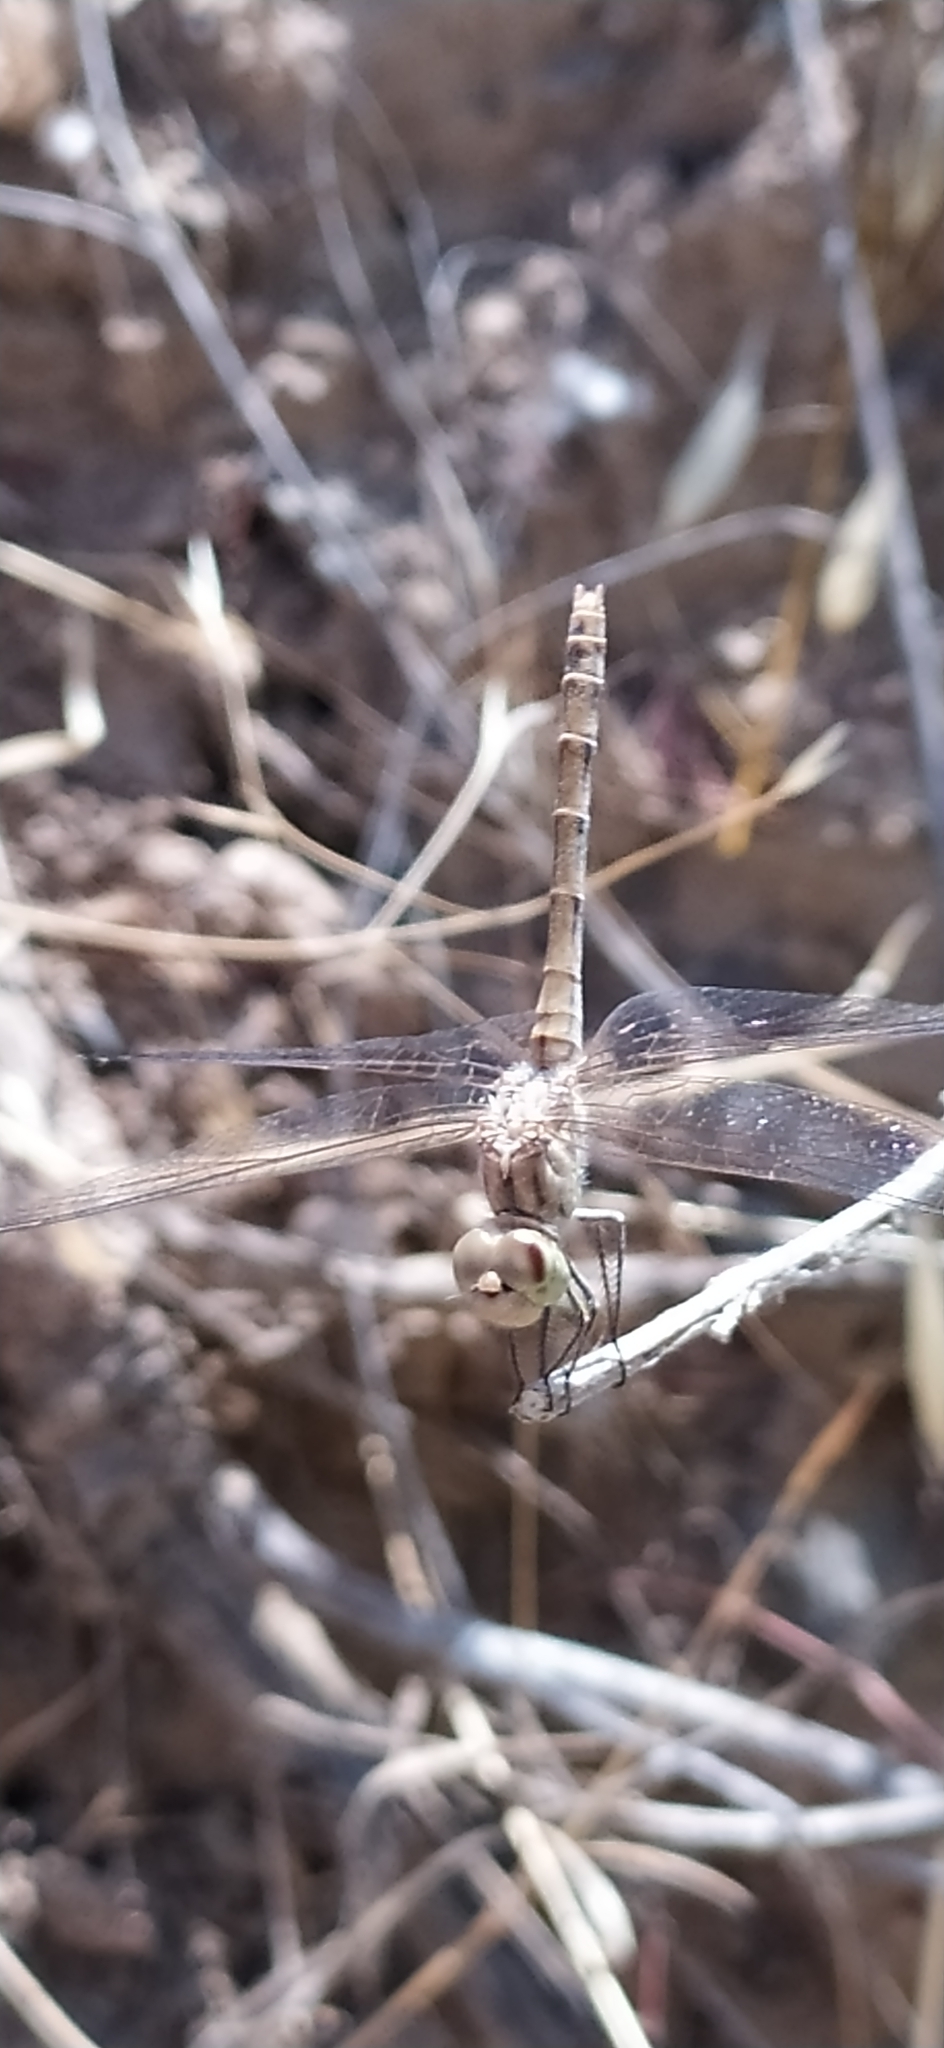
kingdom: Animalia
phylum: Arthropoda
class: Insecta
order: Odonata
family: Libellulidae
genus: Sympetrum
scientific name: Sympetrum striolatum
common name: Common darter
